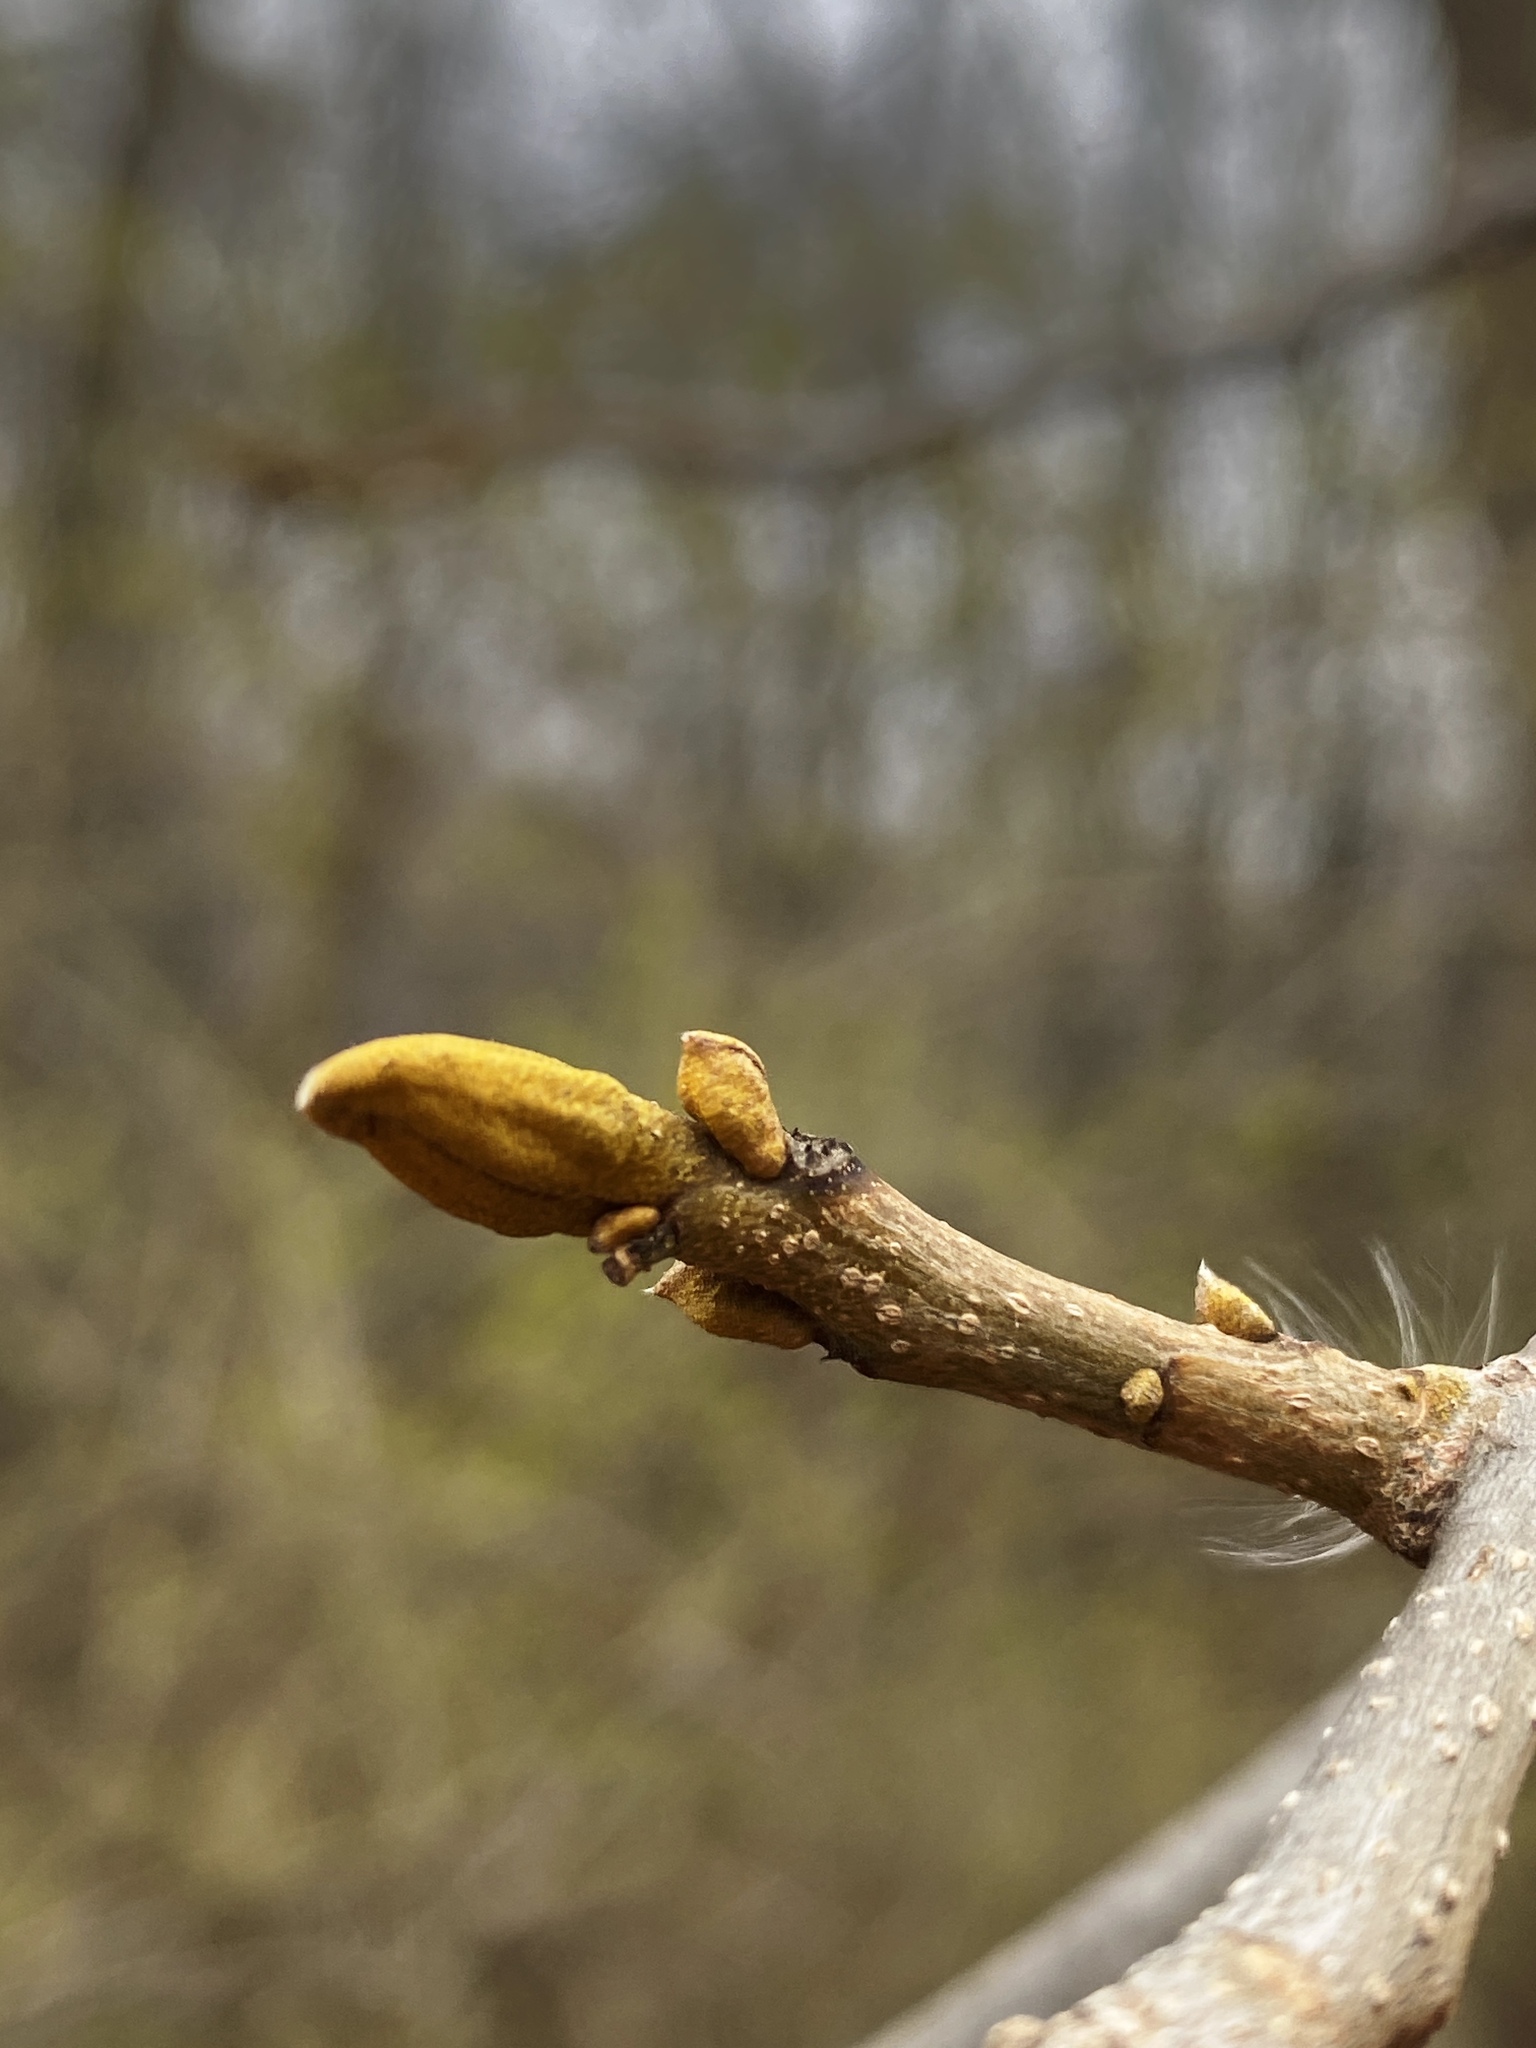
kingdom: Plantae
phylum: Tracheophyta
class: Magnoliopsida
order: Fagales
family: Juglandaceae
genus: Carya
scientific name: Carya cordiformis
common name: Bitternut hickory
